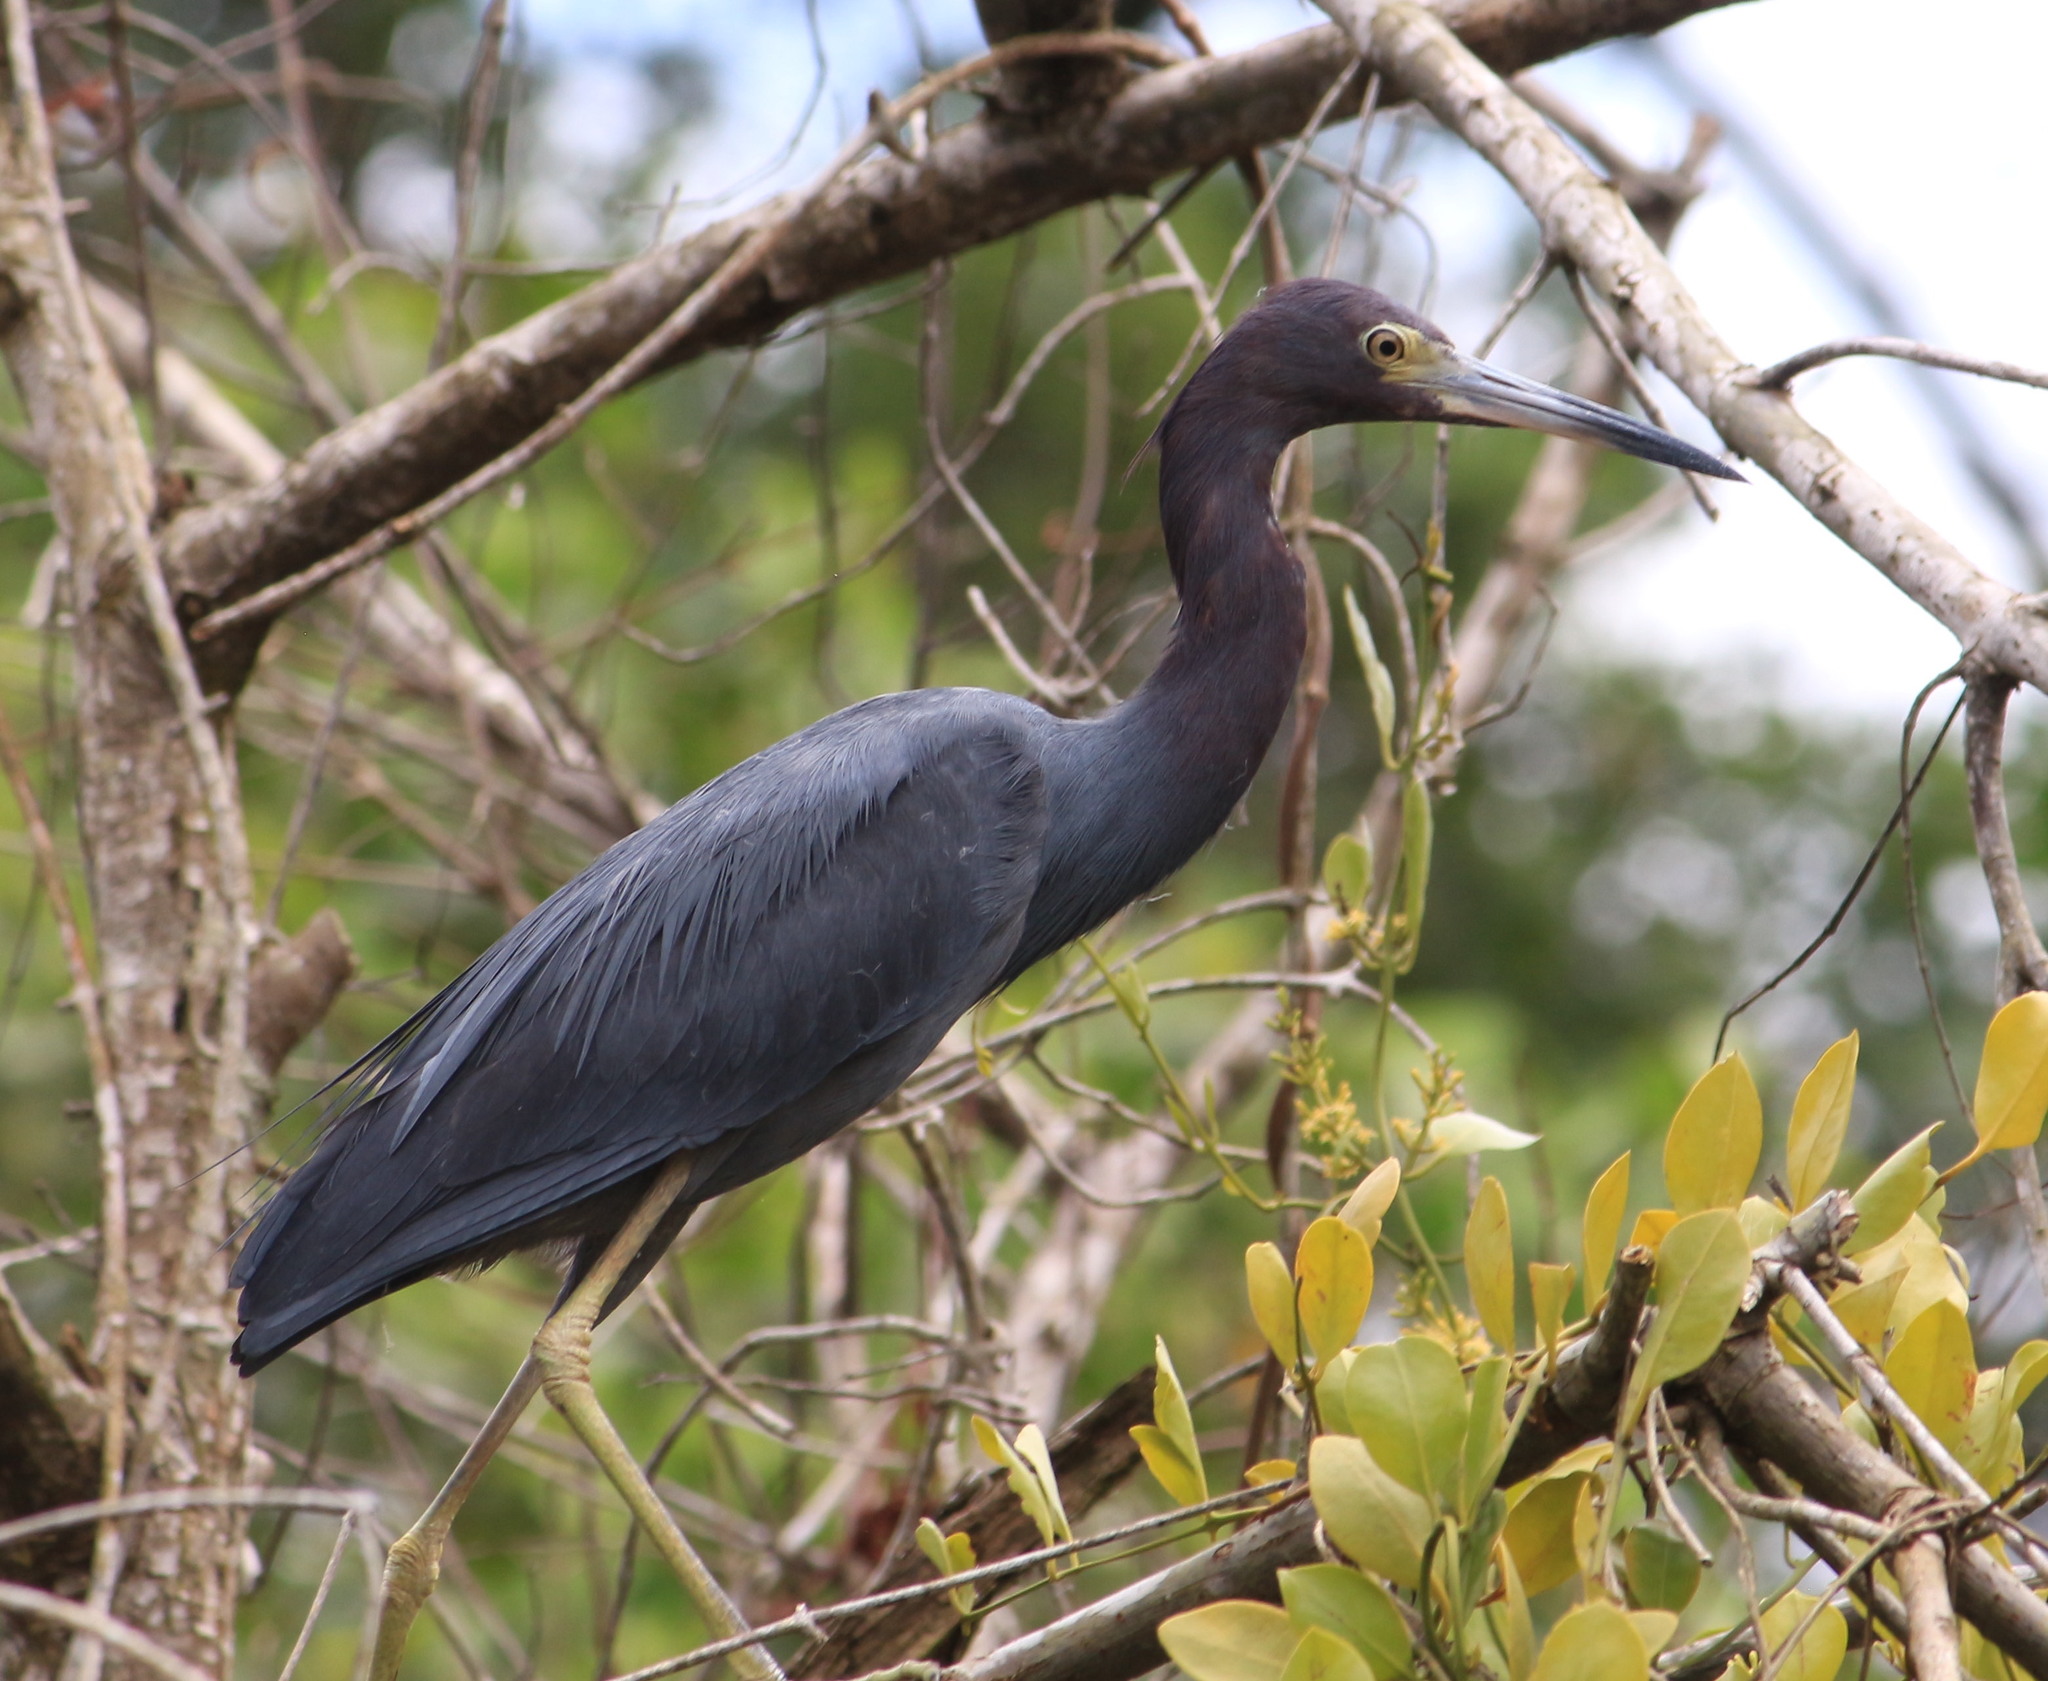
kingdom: Animalia
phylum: Chordata
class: Aves
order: Pelecaniformes
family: Ardeidae
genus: Egretta
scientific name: Egretta caerulea
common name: Little blue heron
